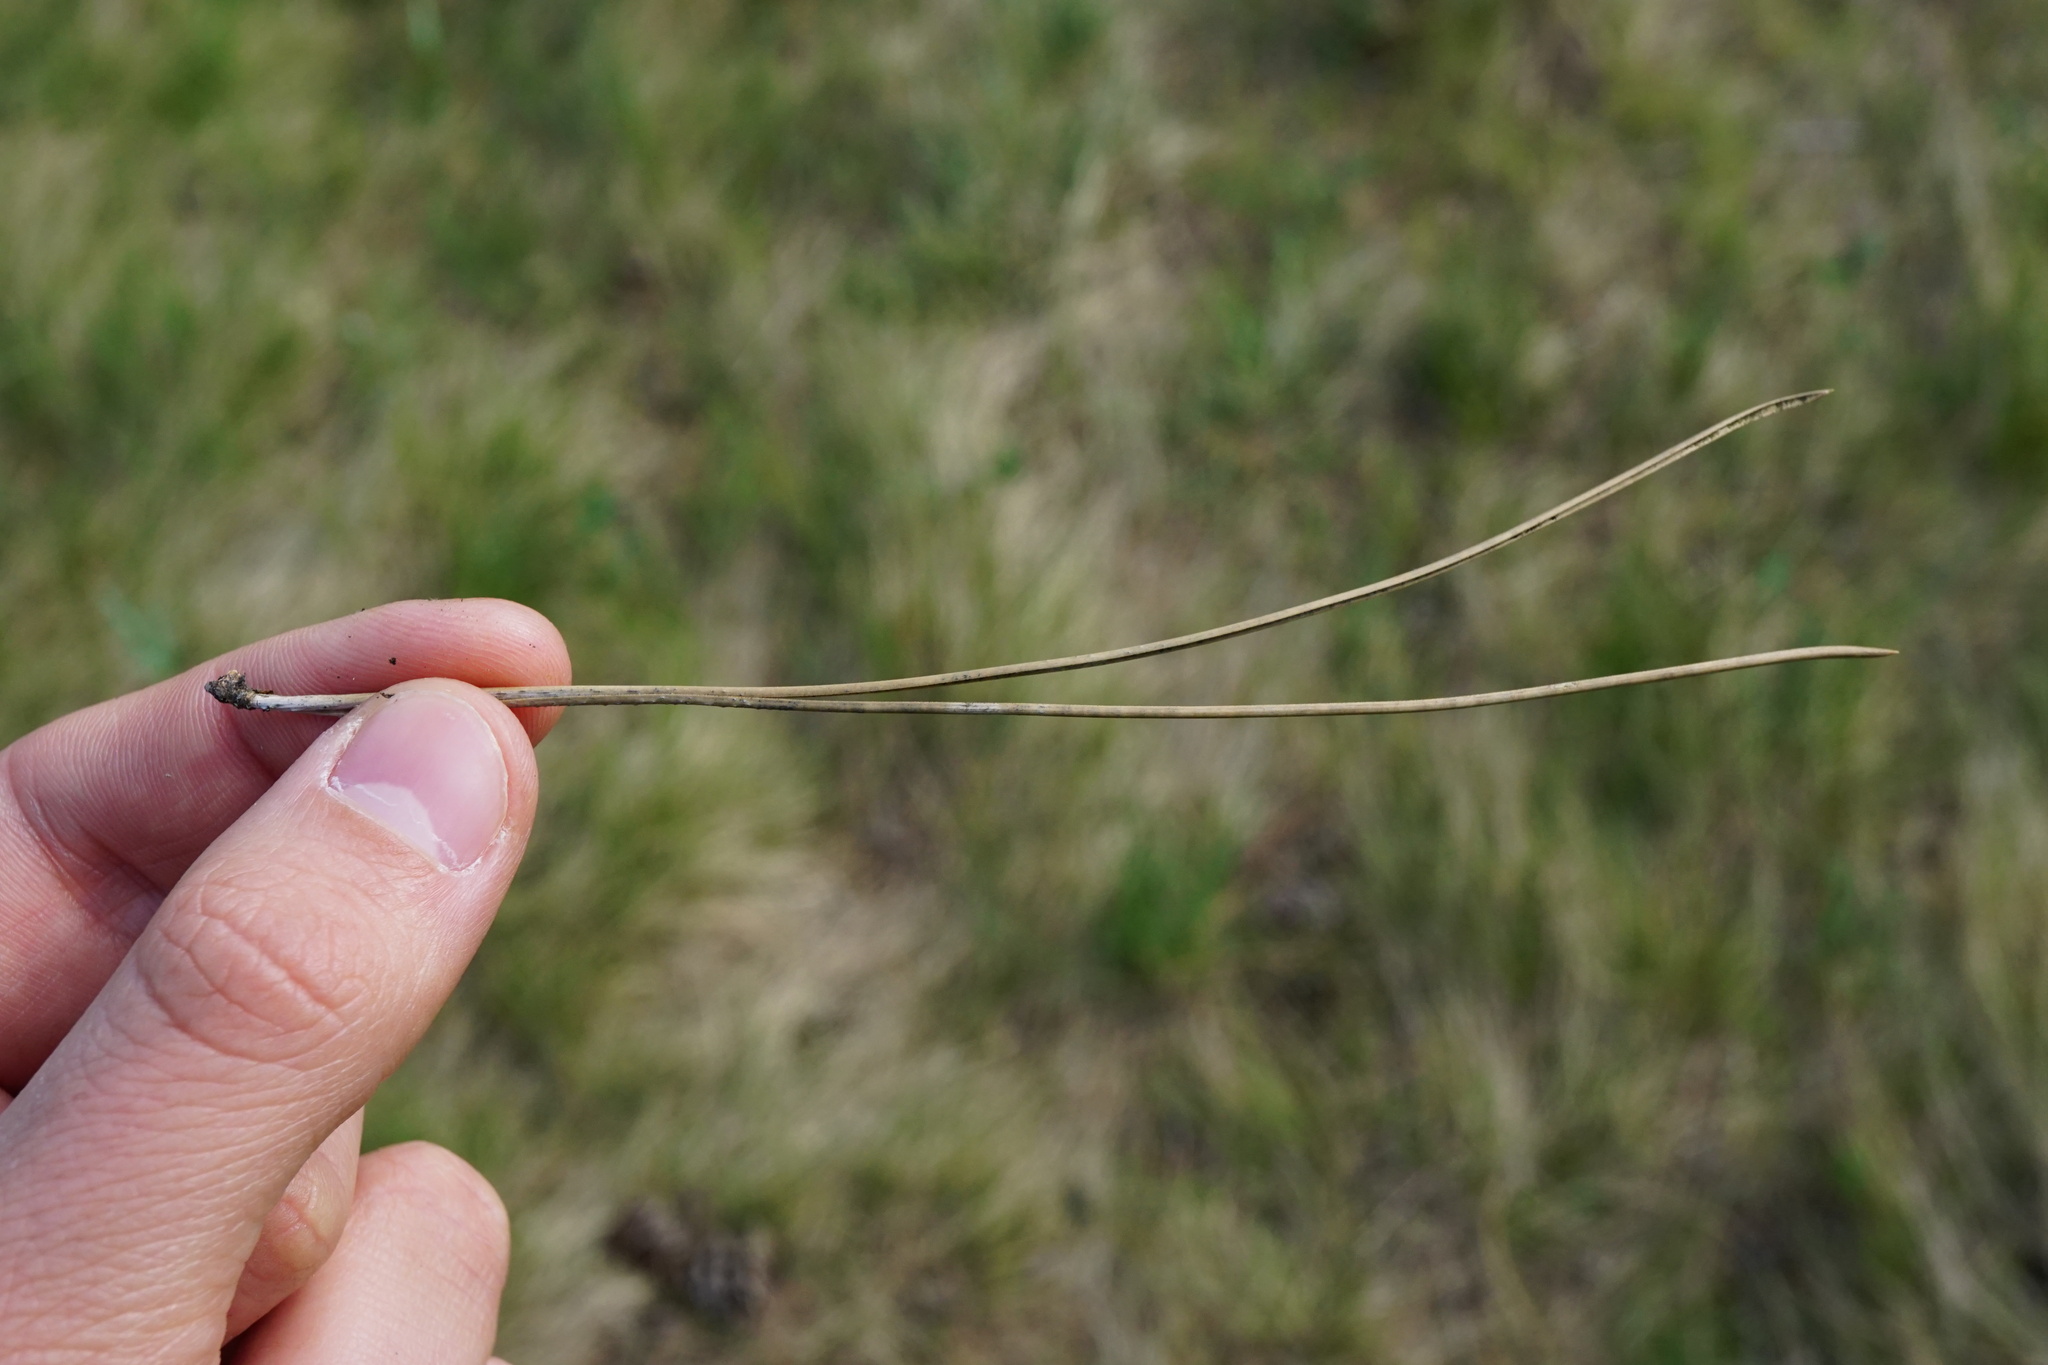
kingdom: Plantae
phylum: Tracheophyta
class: Pinopsida
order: Pinales
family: Pinaceae
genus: Pinus
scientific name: Pinus nigra
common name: Austrian pine
